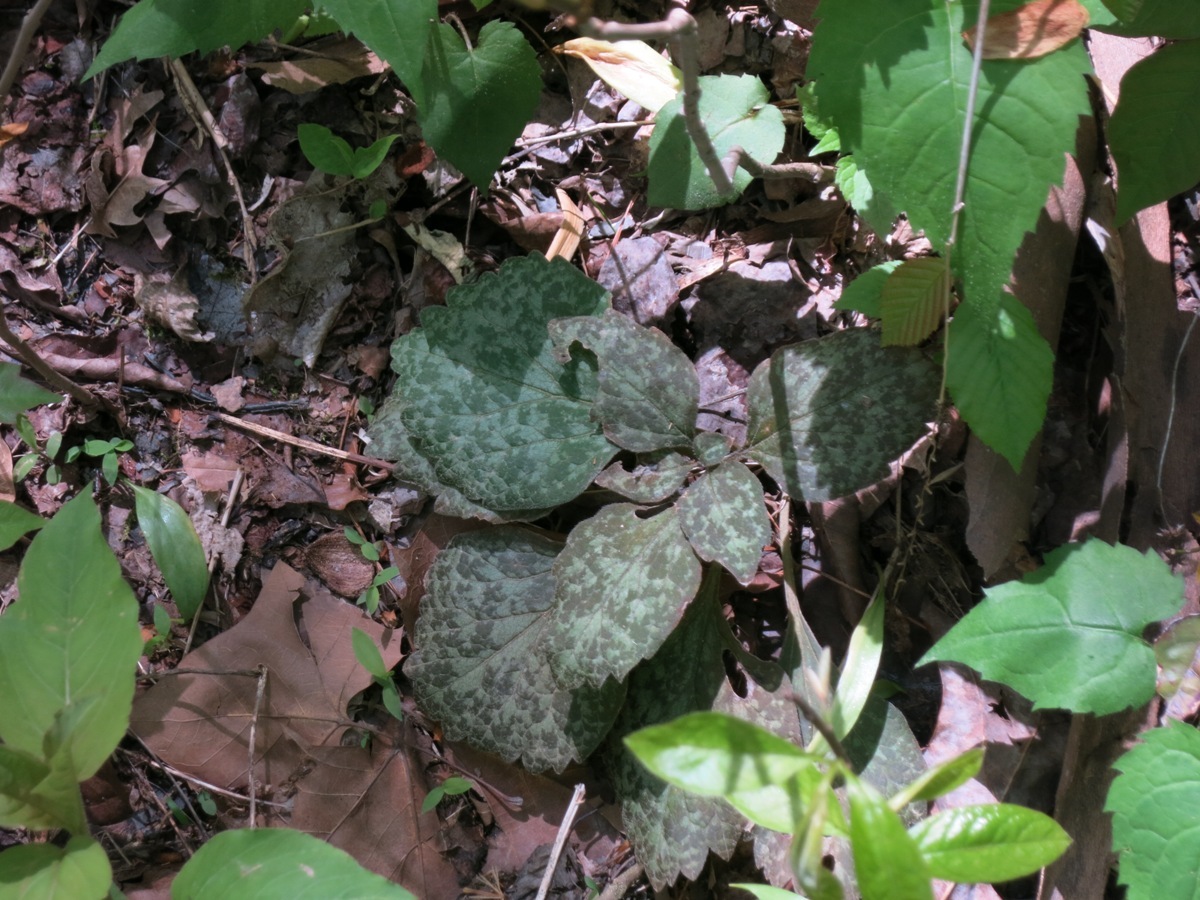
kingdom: Plantae
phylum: Tracheophyta
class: Magnoliopsida
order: Buxales
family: Buxaceae
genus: Pachysandra
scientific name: Pachysandra procumbens
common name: Mountain-spurge
